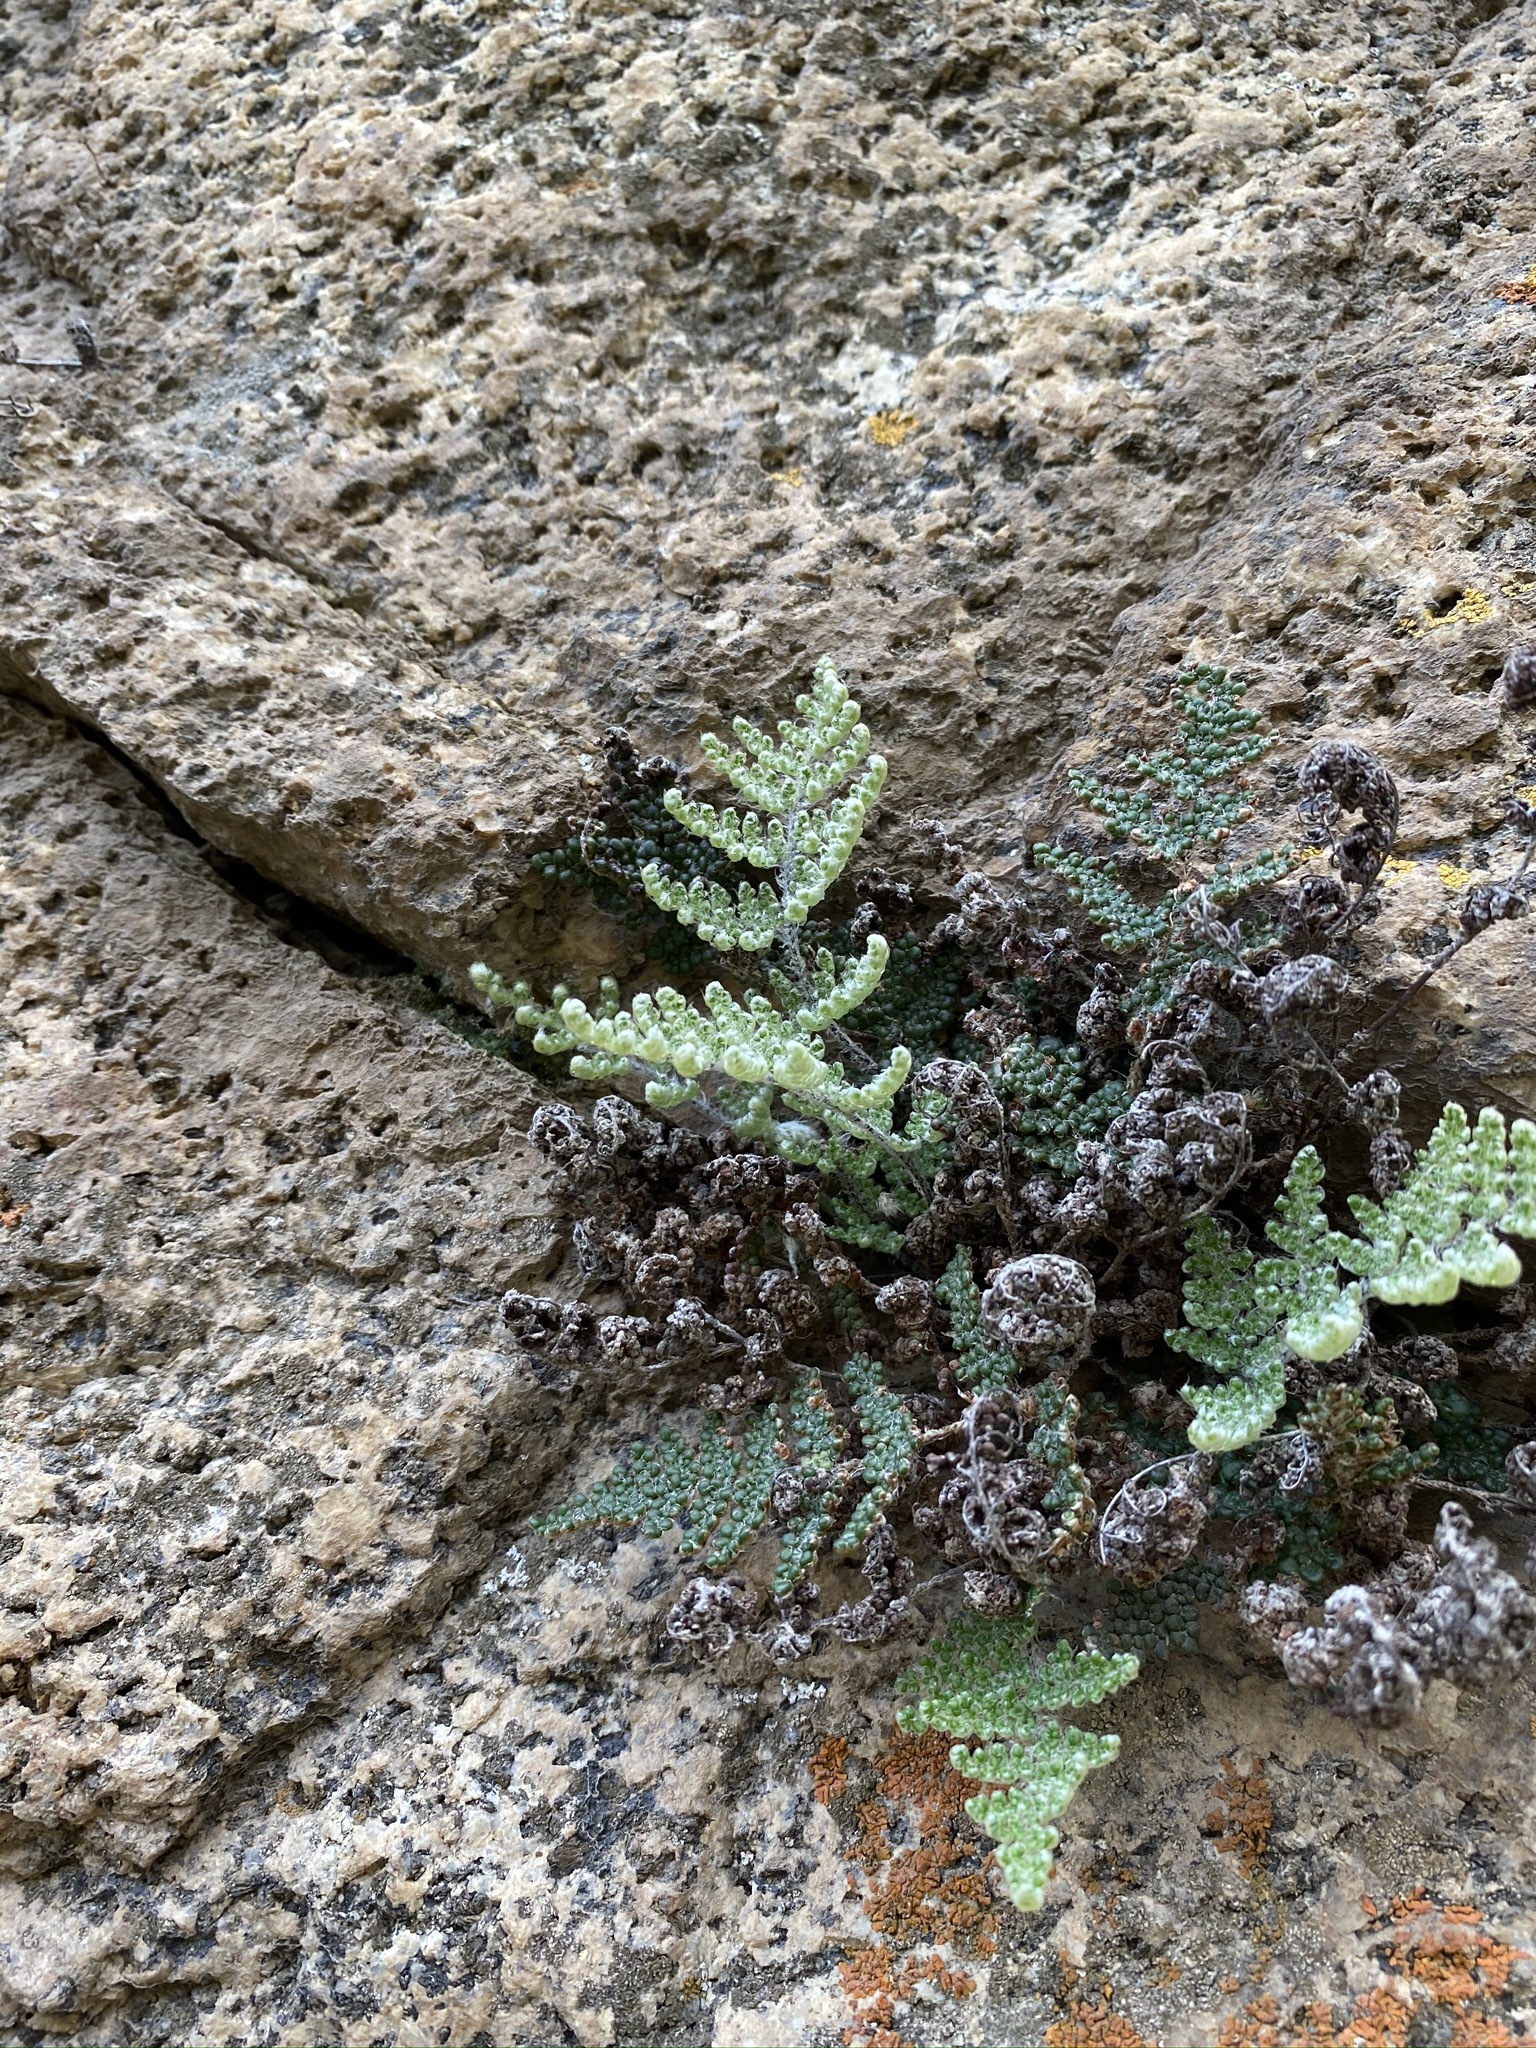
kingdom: Plantae
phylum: Tracheophyta
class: Polypodiopsida
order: Polypodiales
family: Pteridaceae
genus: Myriopteris
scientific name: Myriopteris covillei
